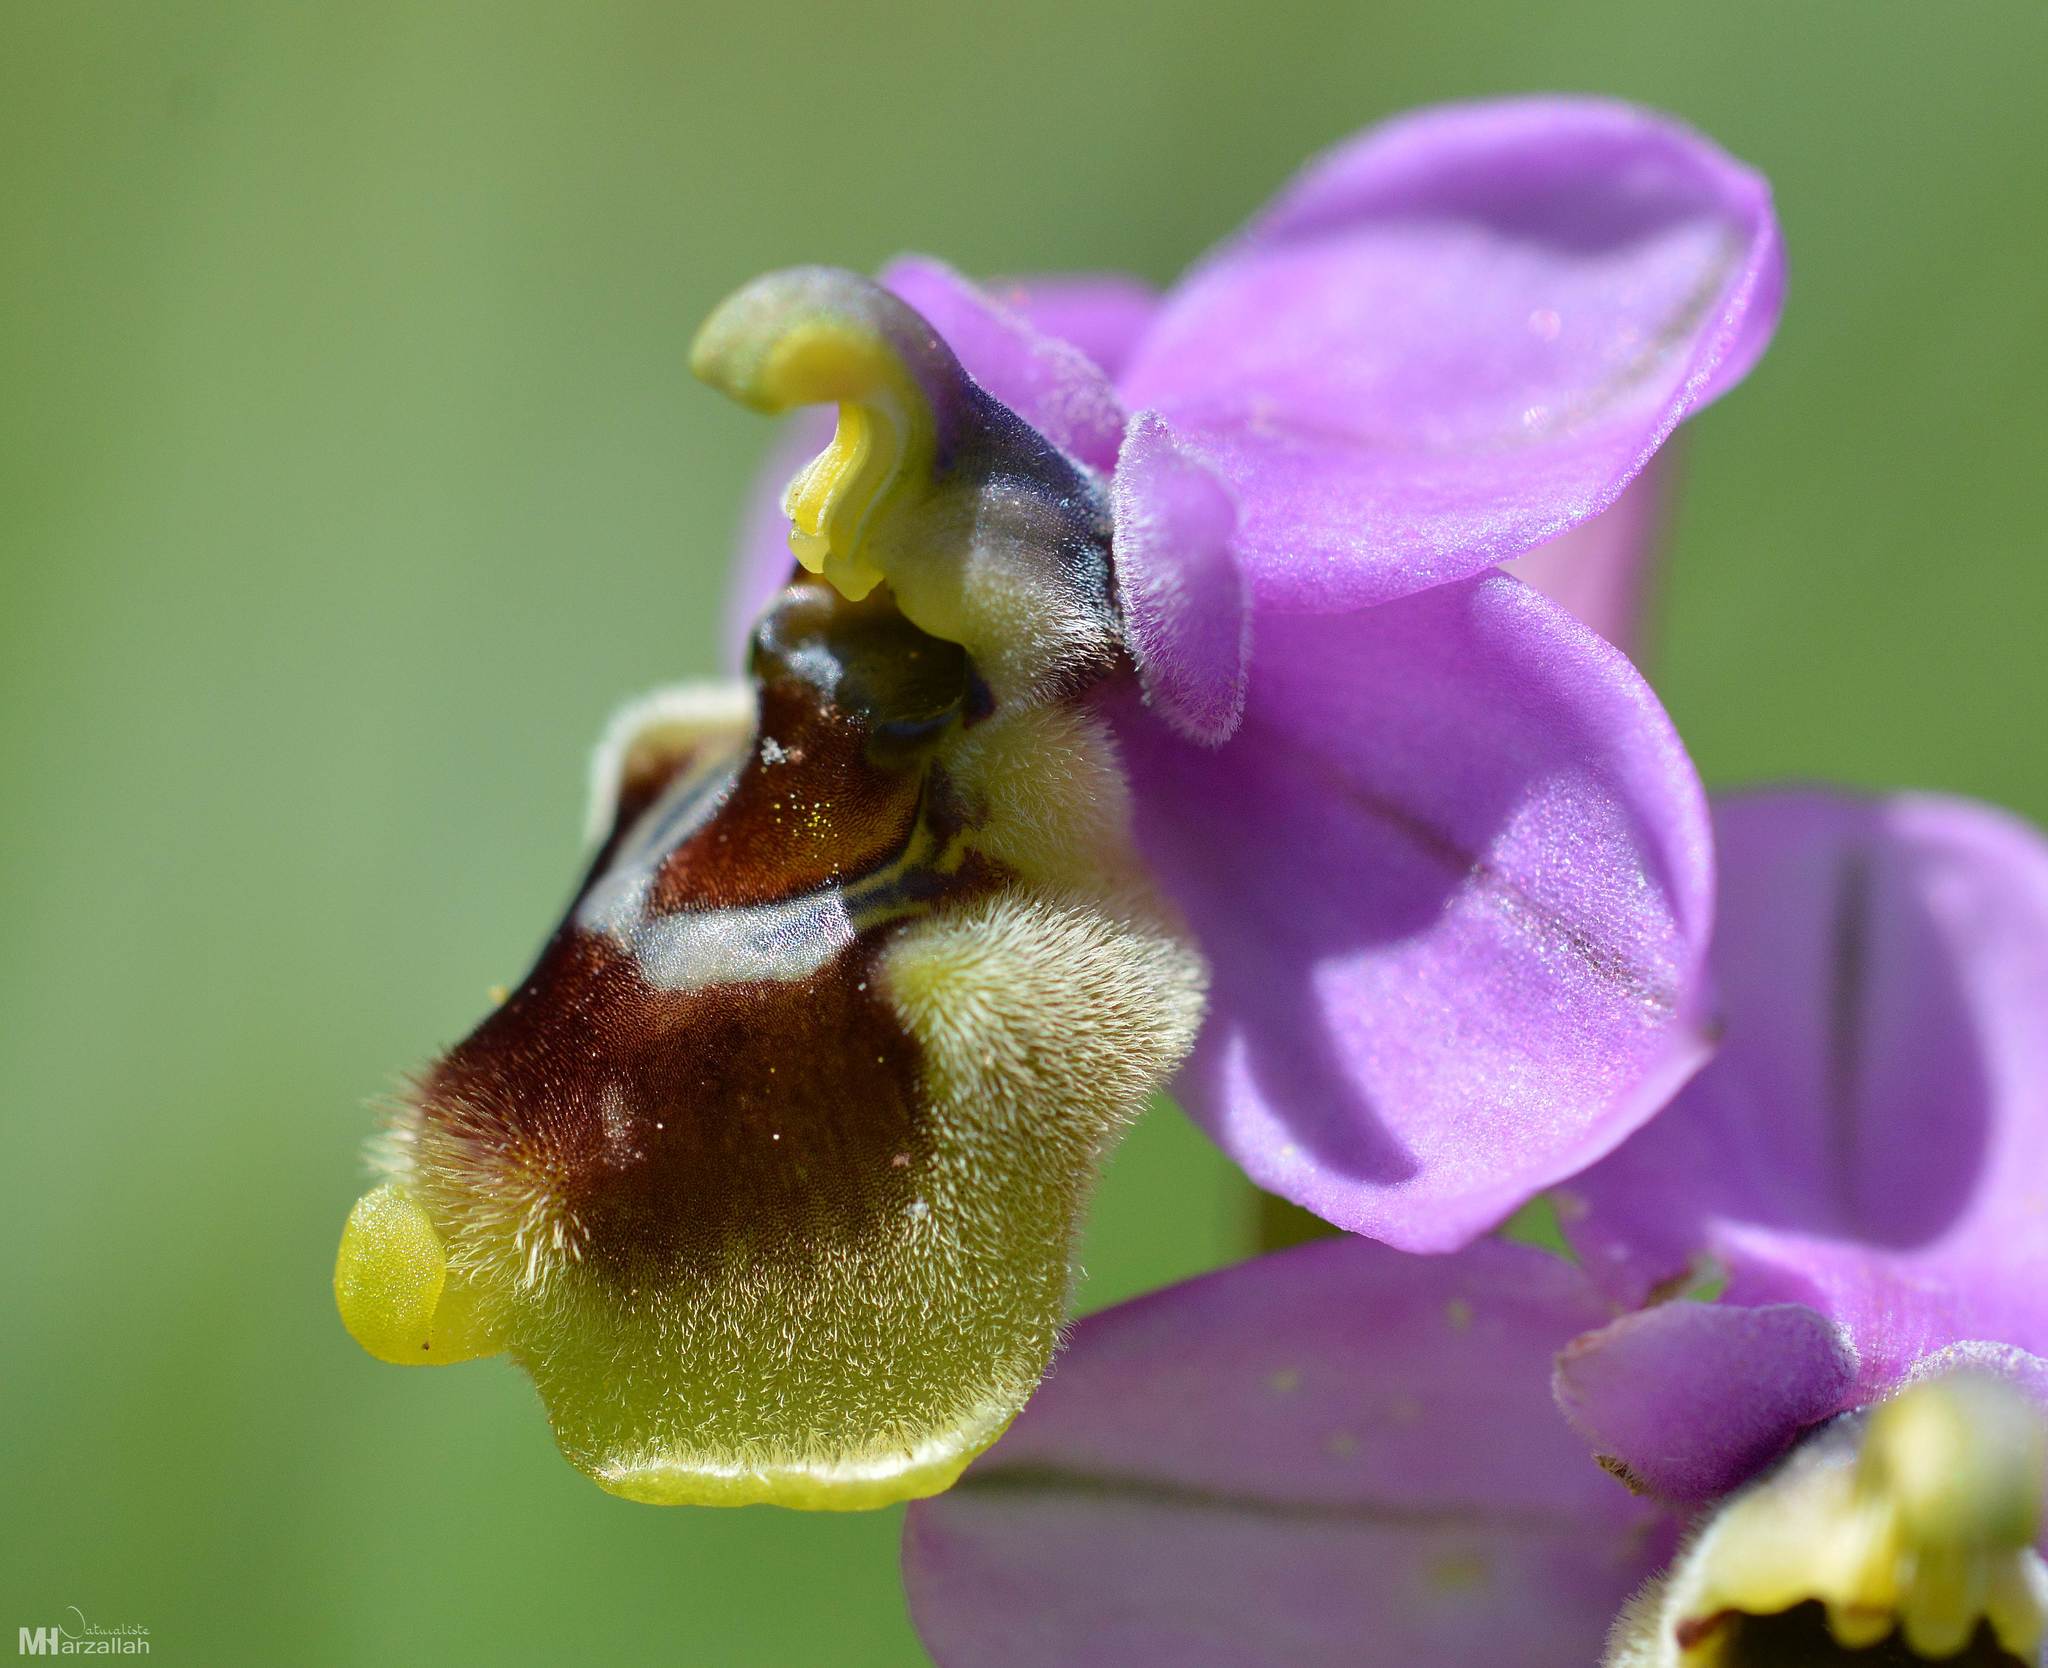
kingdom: Plantae
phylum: Tracheophyta
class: Liliopsida
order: Asparagales
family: Orchidaceae
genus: Ophrys
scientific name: Ophrys tenthredinifera
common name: Sawfly orchid
